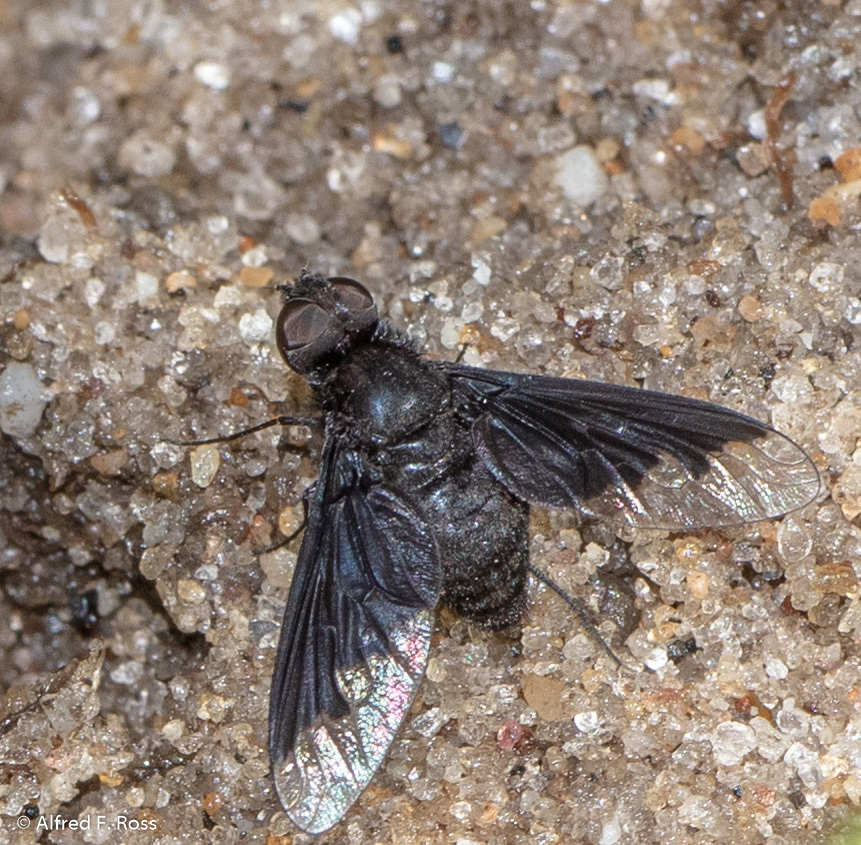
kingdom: Animalia
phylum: Arthropoda
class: Insecta
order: Diptera
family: Bombyliidae
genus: Anthrax
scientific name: Anthrax analis
